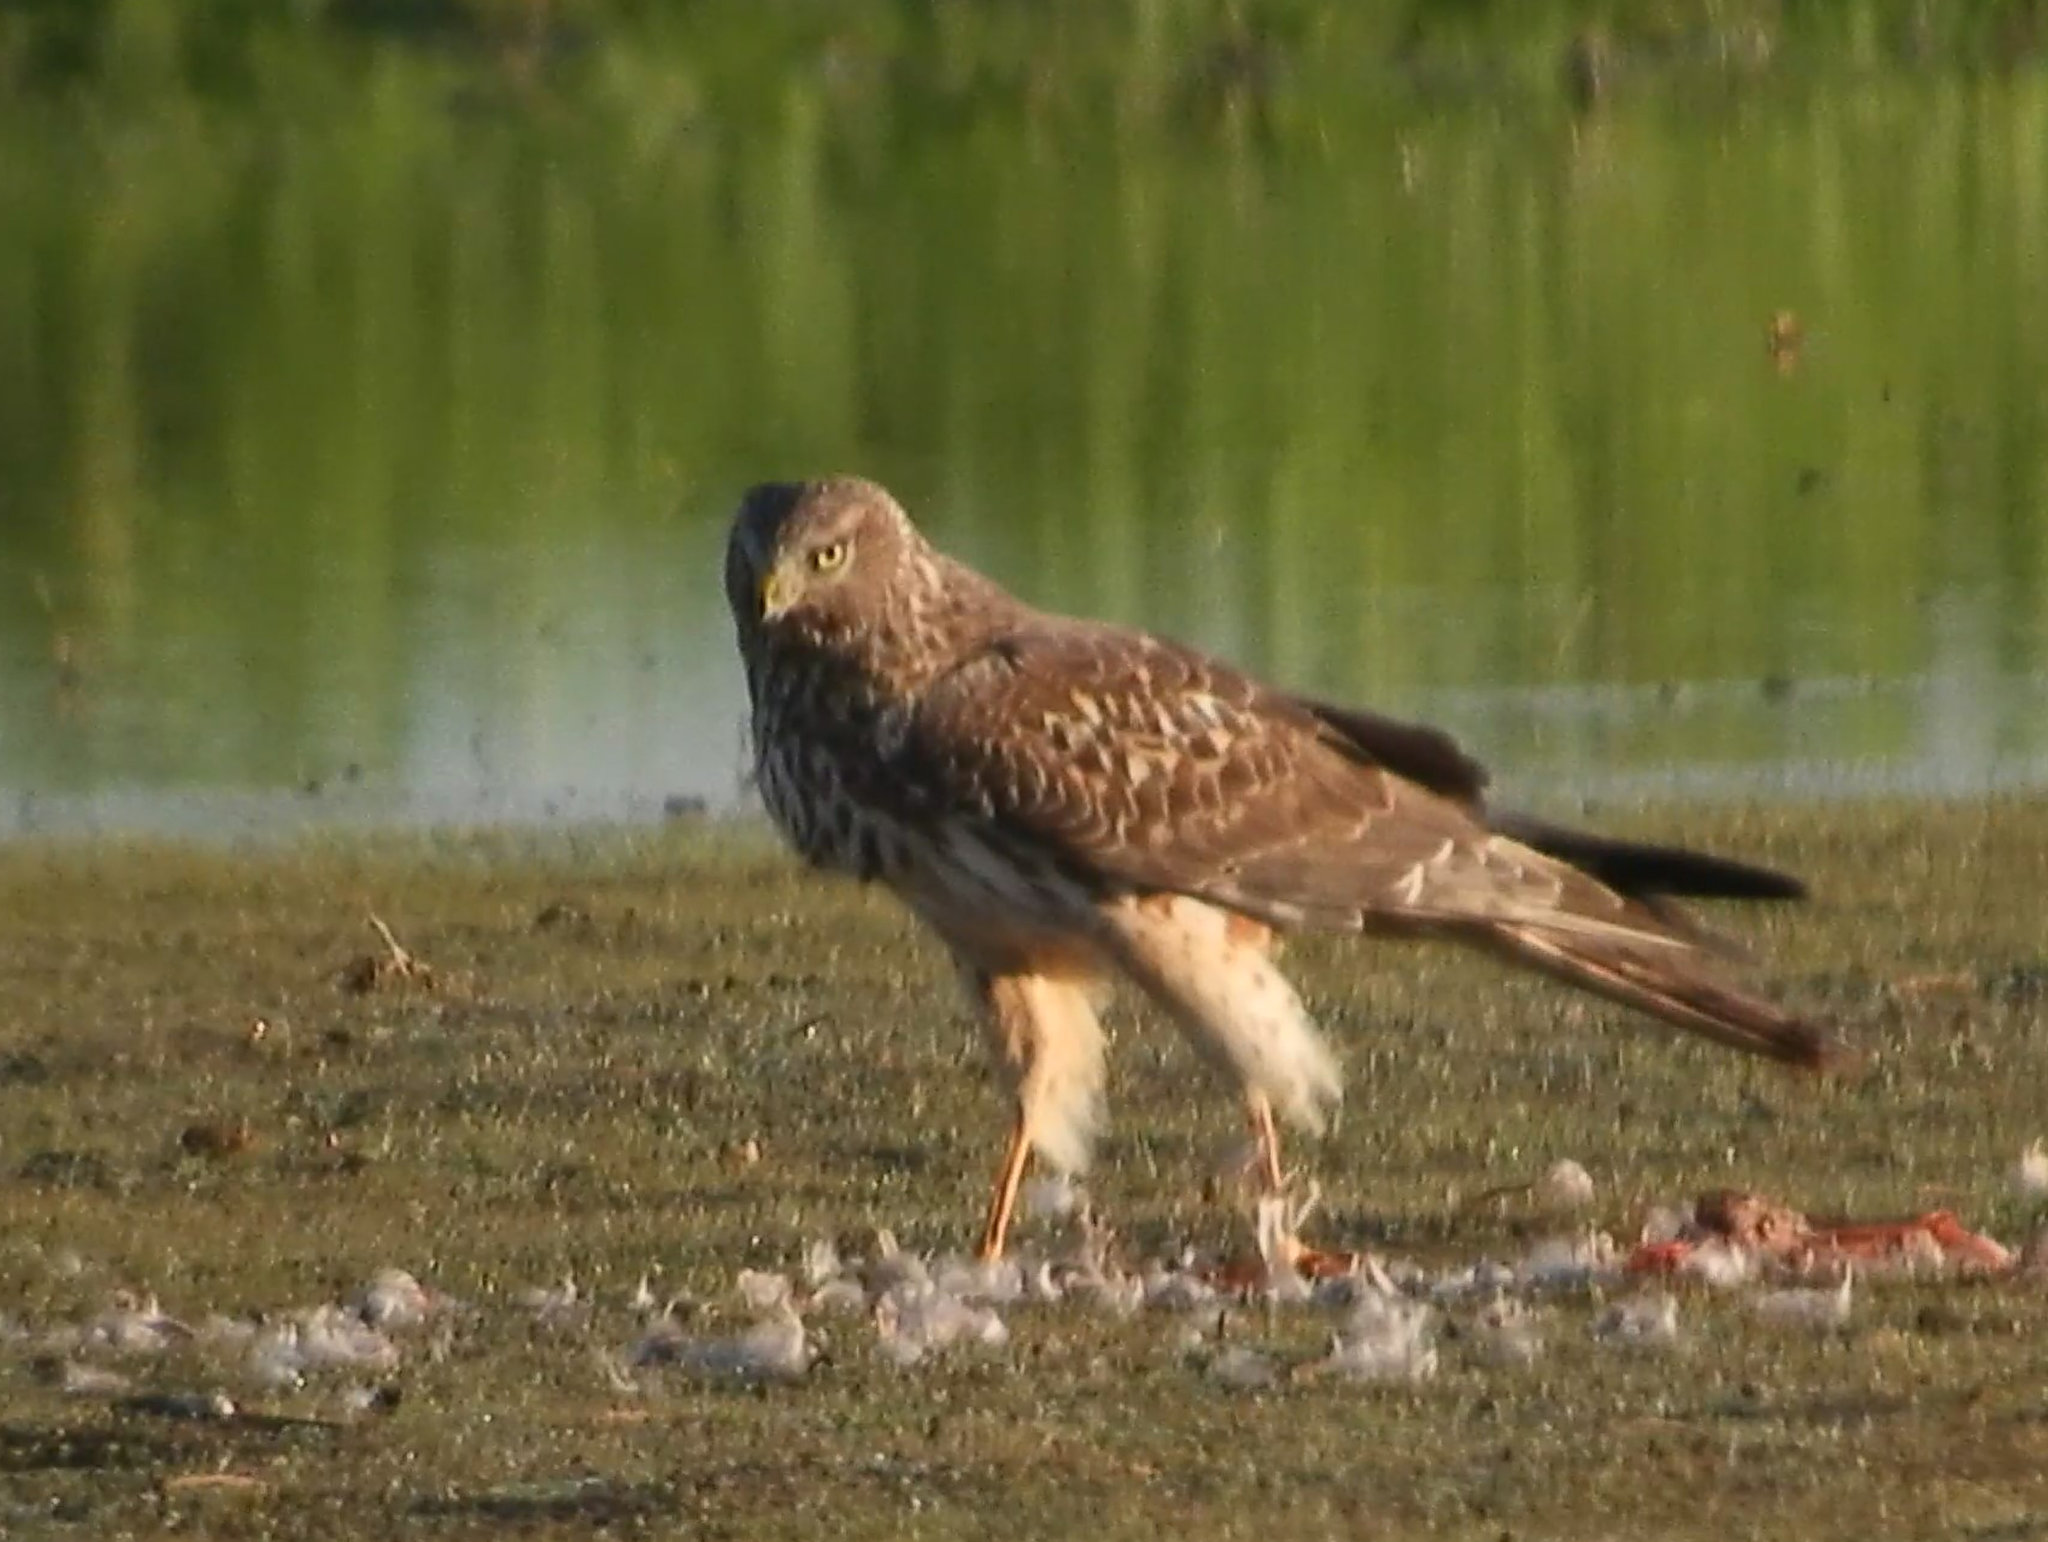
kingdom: Animalia
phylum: Chordata
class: Aves
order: Accipitriformes
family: Accipitridae
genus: Circus
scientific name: Circus cyaneus
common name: Hen harrier
